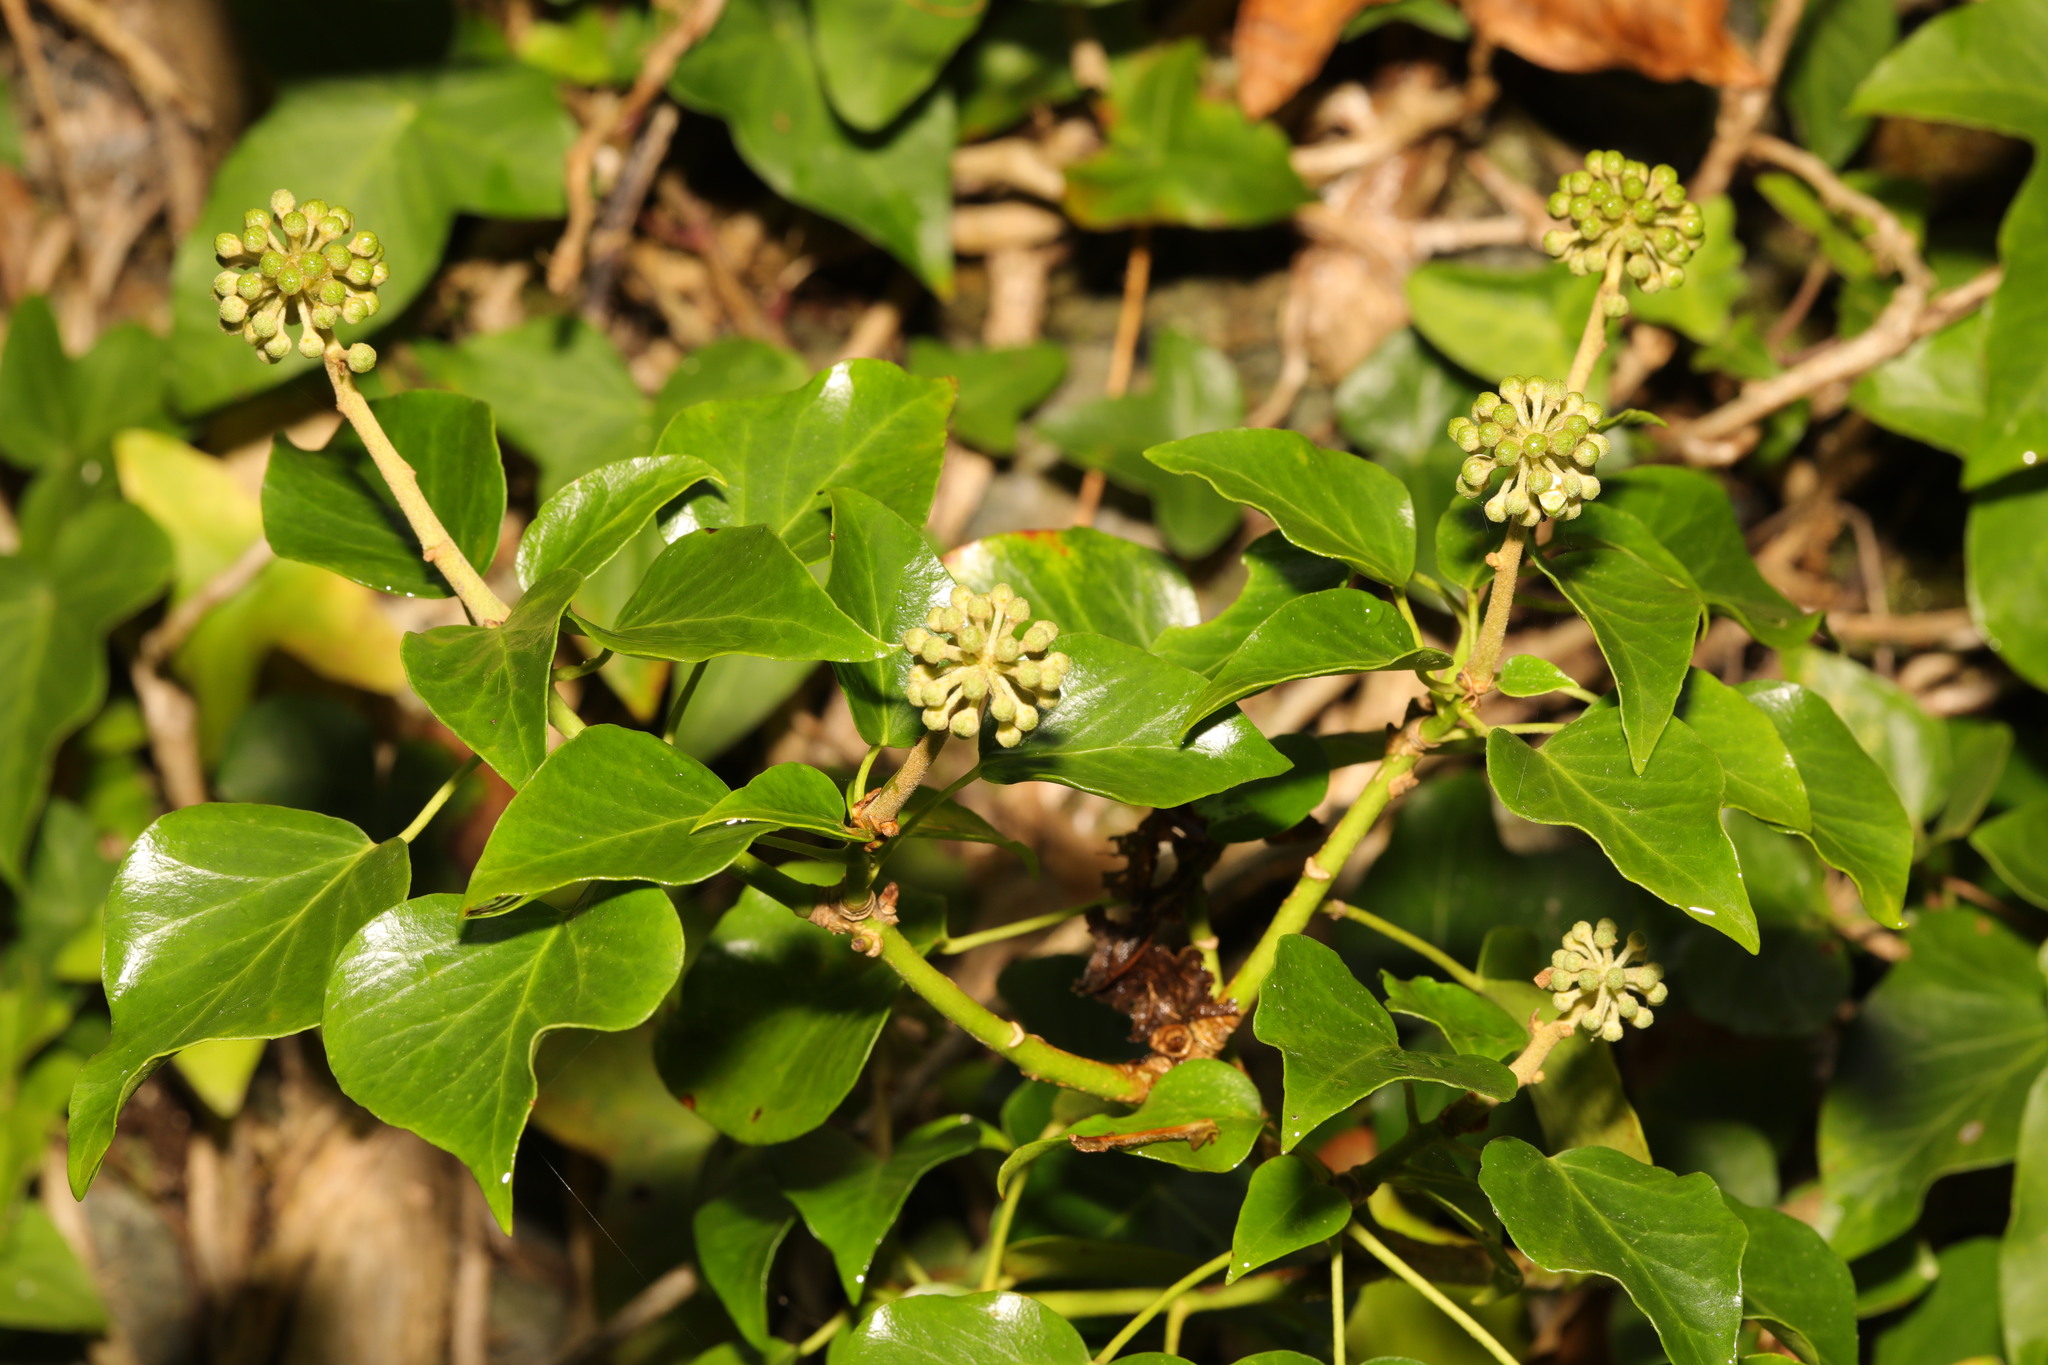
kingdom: Plantae
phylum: Tracheophyta
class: Magnoliopsida
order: Apiales
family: Araliaceae
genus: Hedera
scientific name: Hedera helix
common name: Ivy
